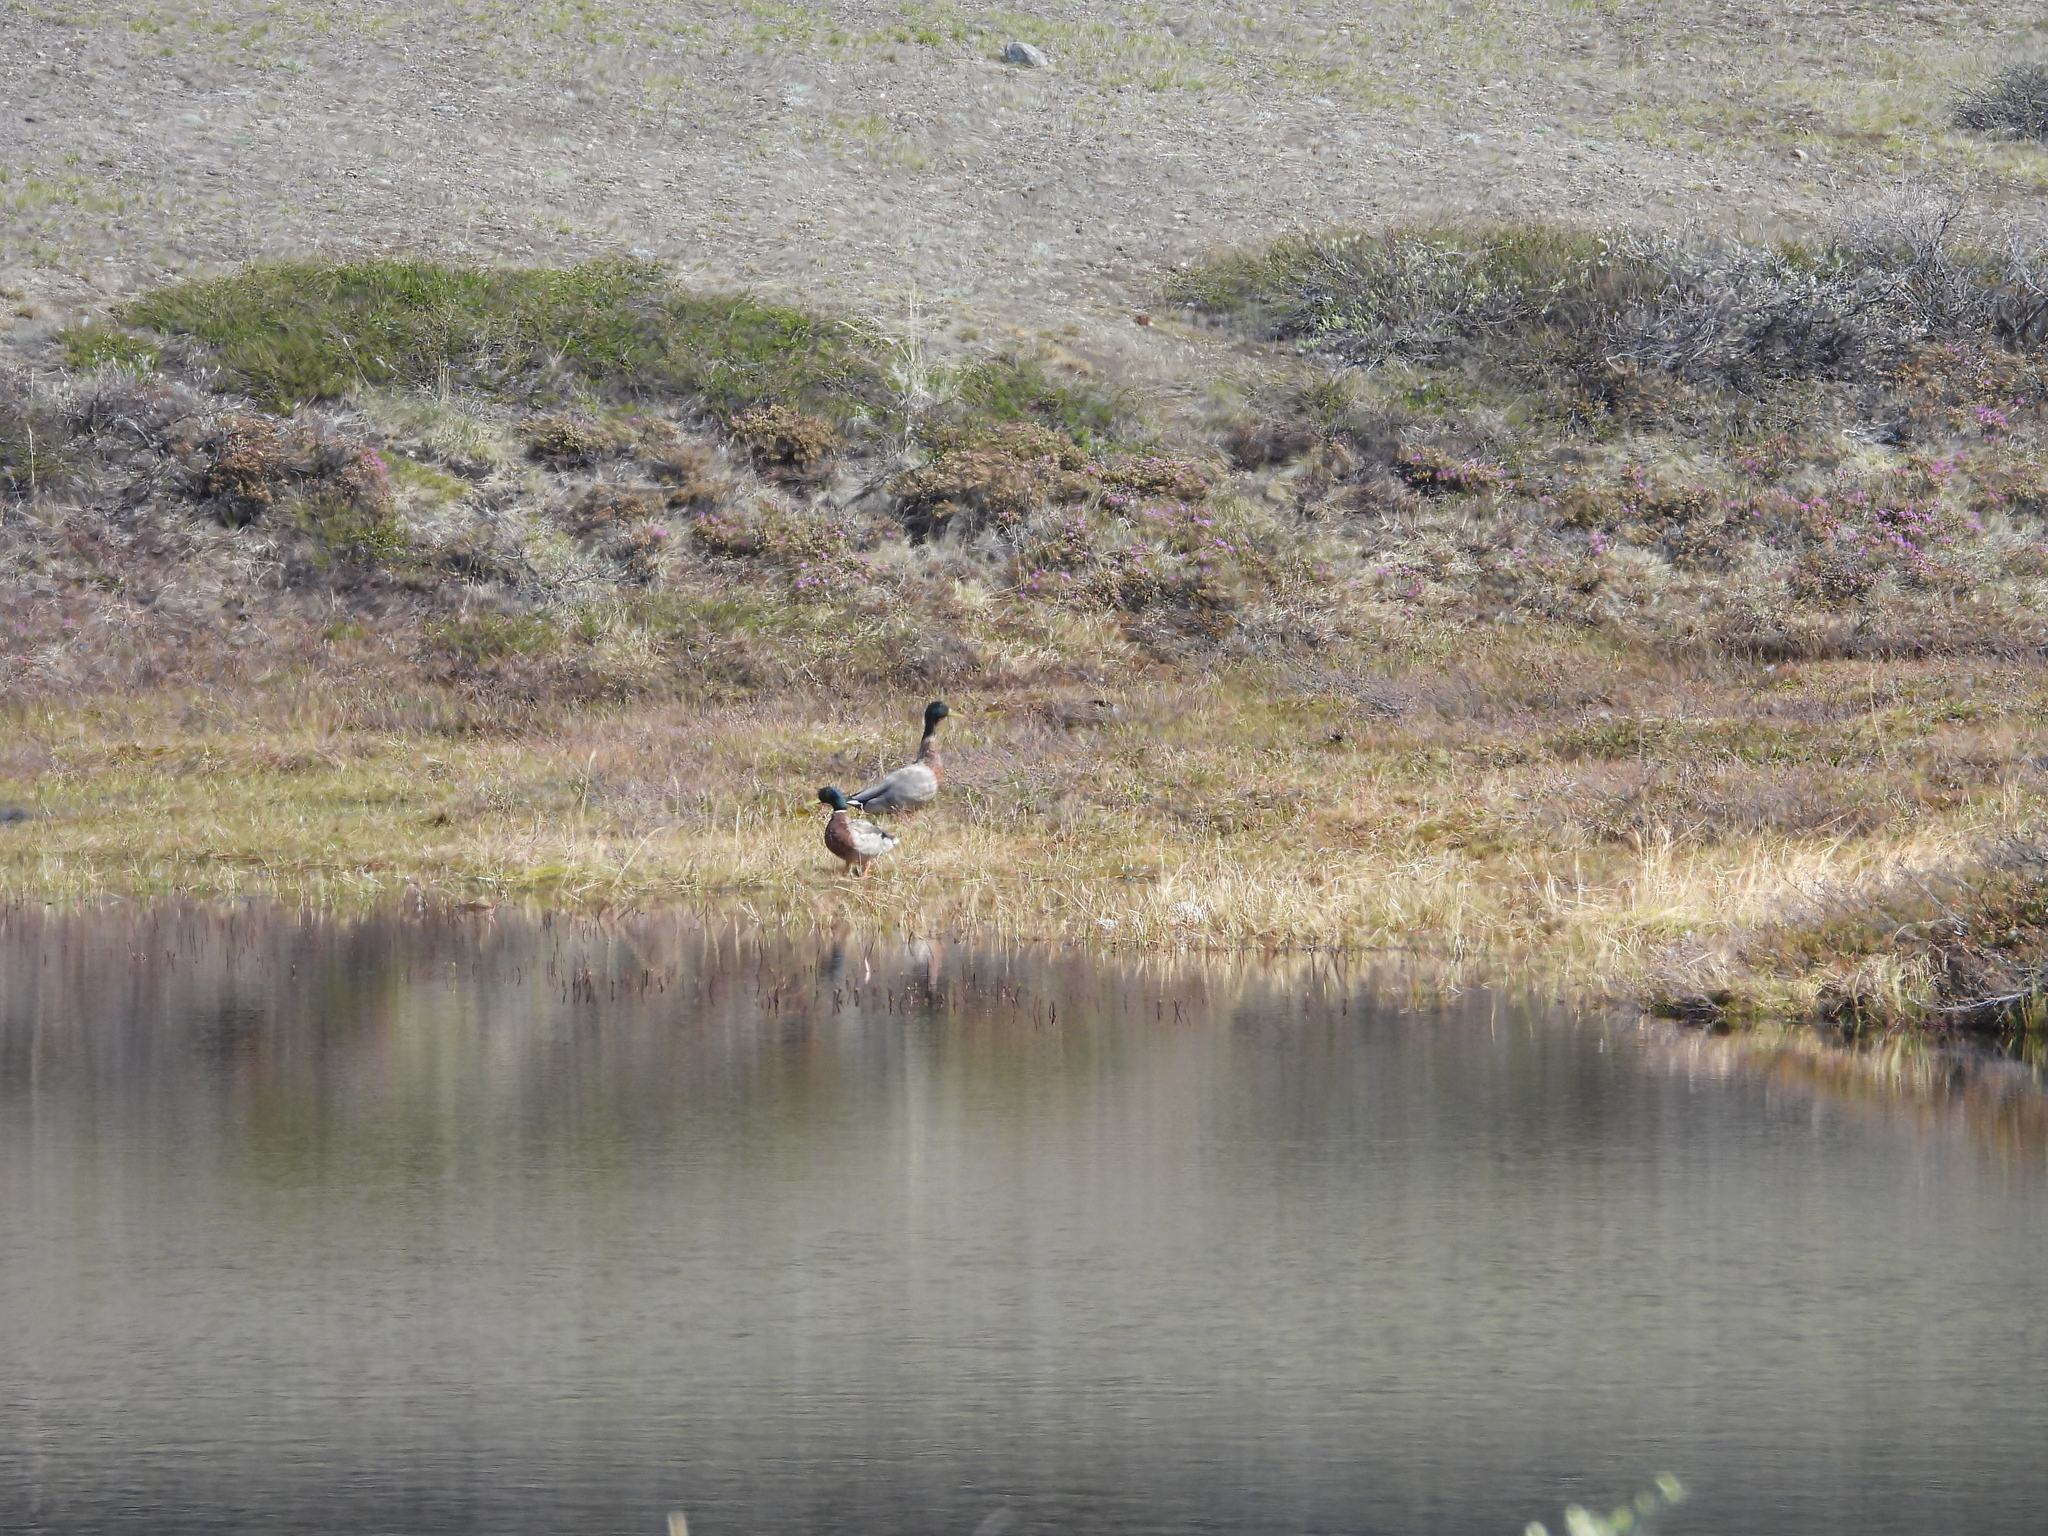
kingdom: Animalia
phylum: Chordata
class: Aves
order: Anseriformes
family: Anatidae
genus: Anas
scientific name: Anas platyrhynchos
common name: Mallard
